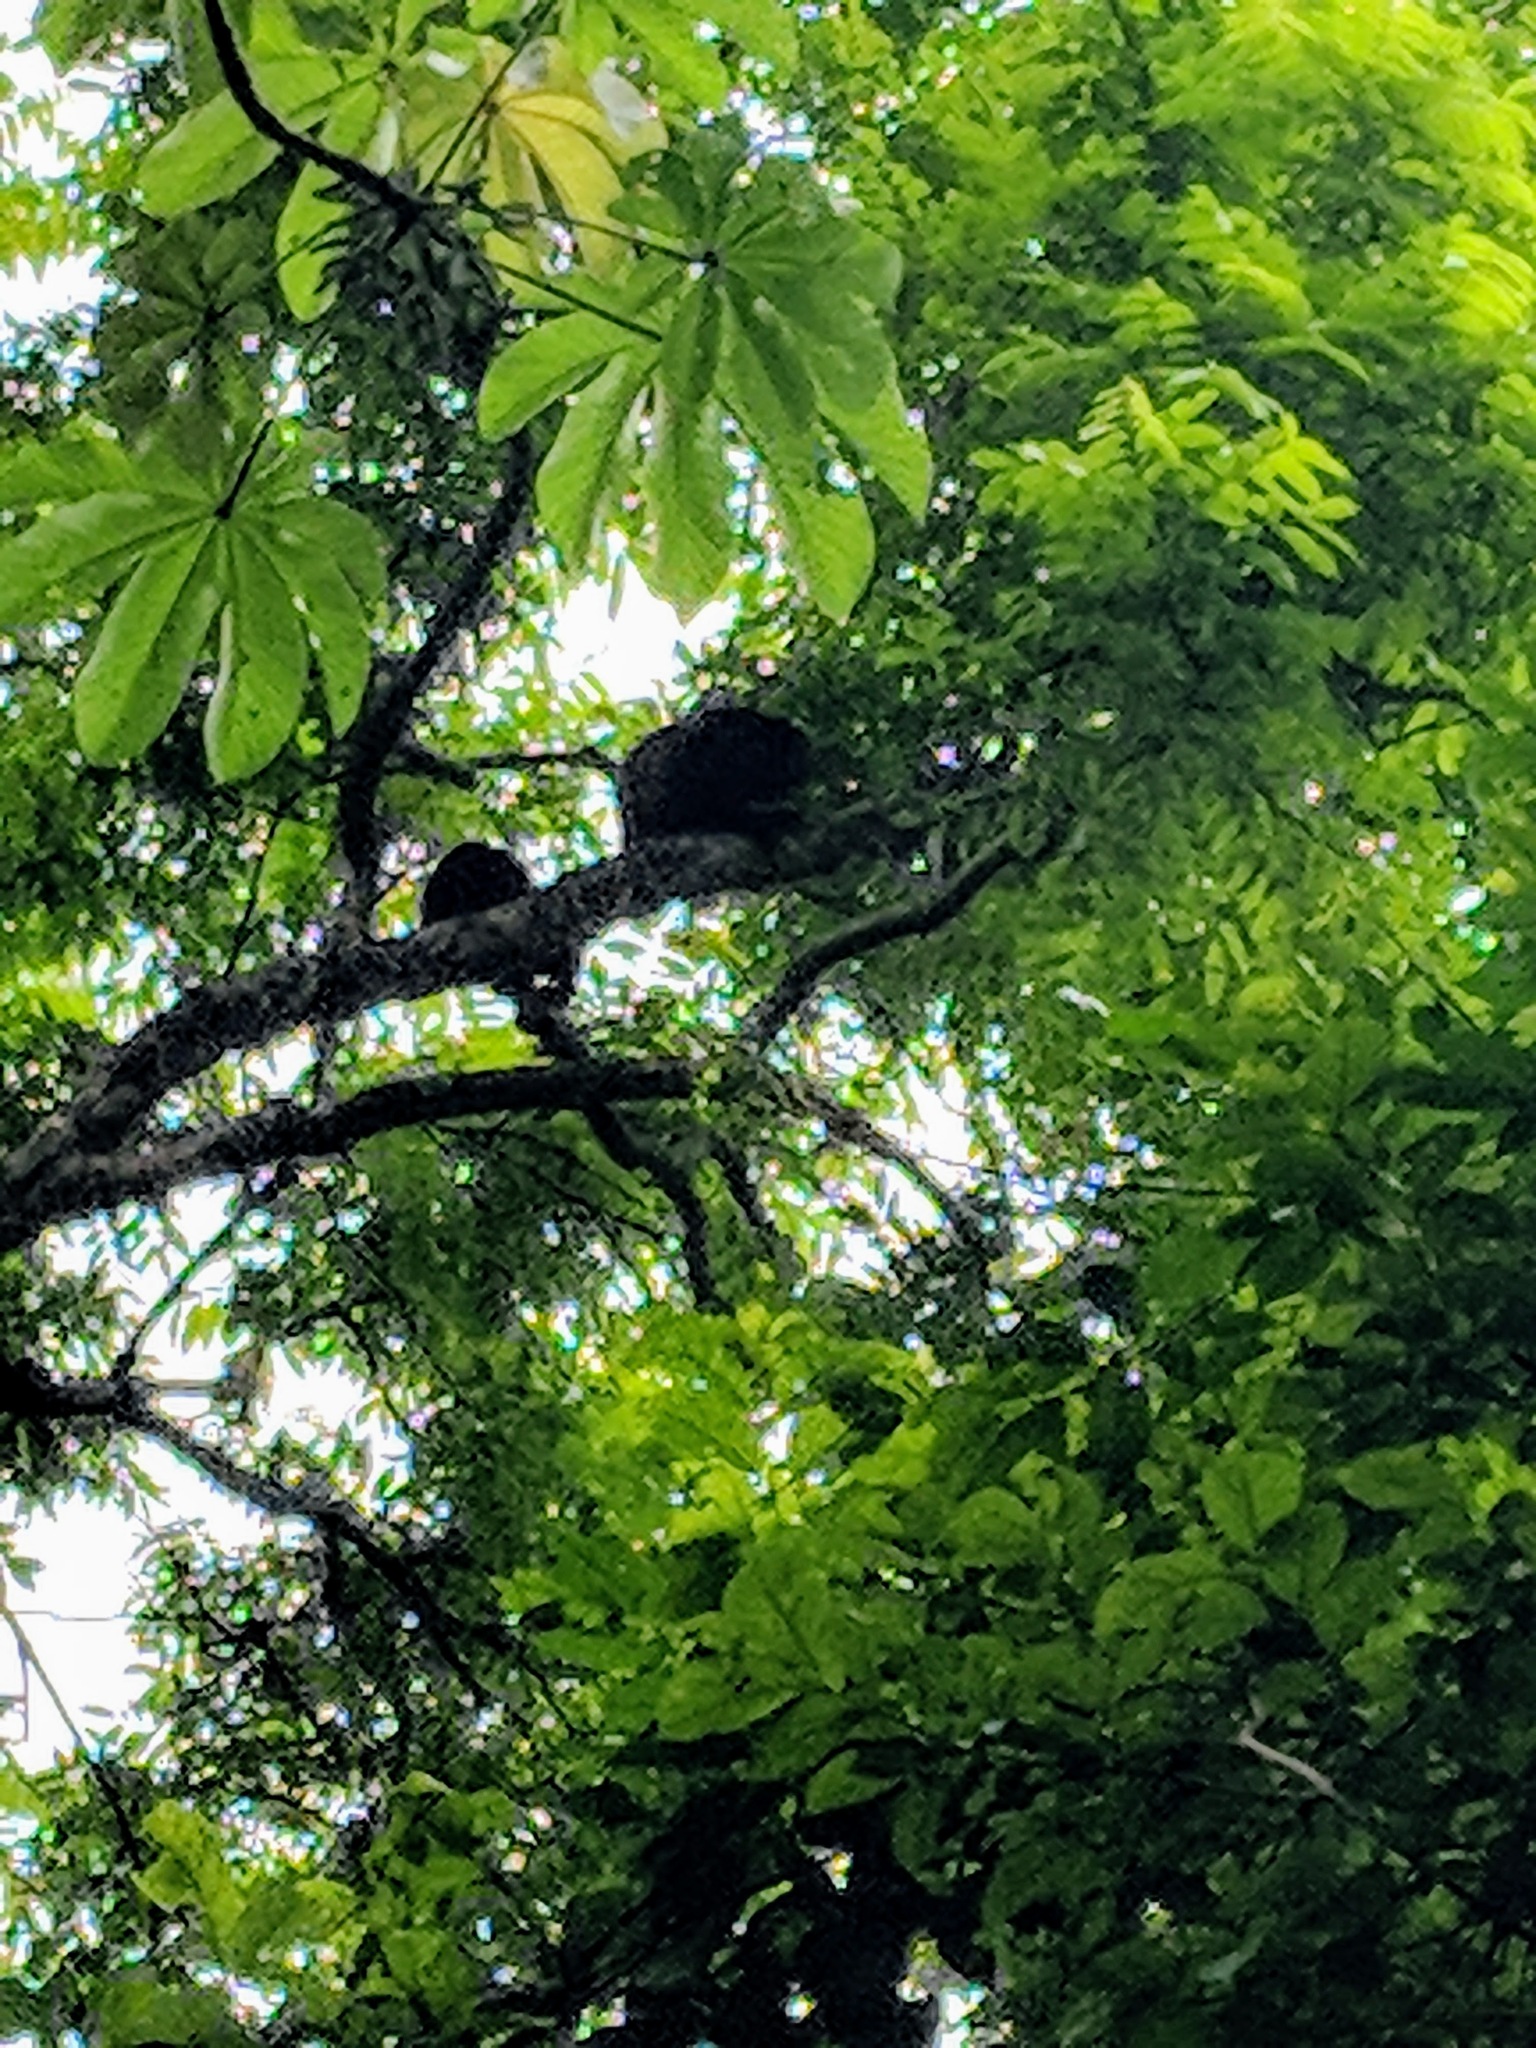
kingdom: Animalia
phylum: Chordata
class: Mammalia
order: Primates
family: Atelidae
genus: Alouatta
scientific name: Alouatta palliata
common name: Mantled howler
